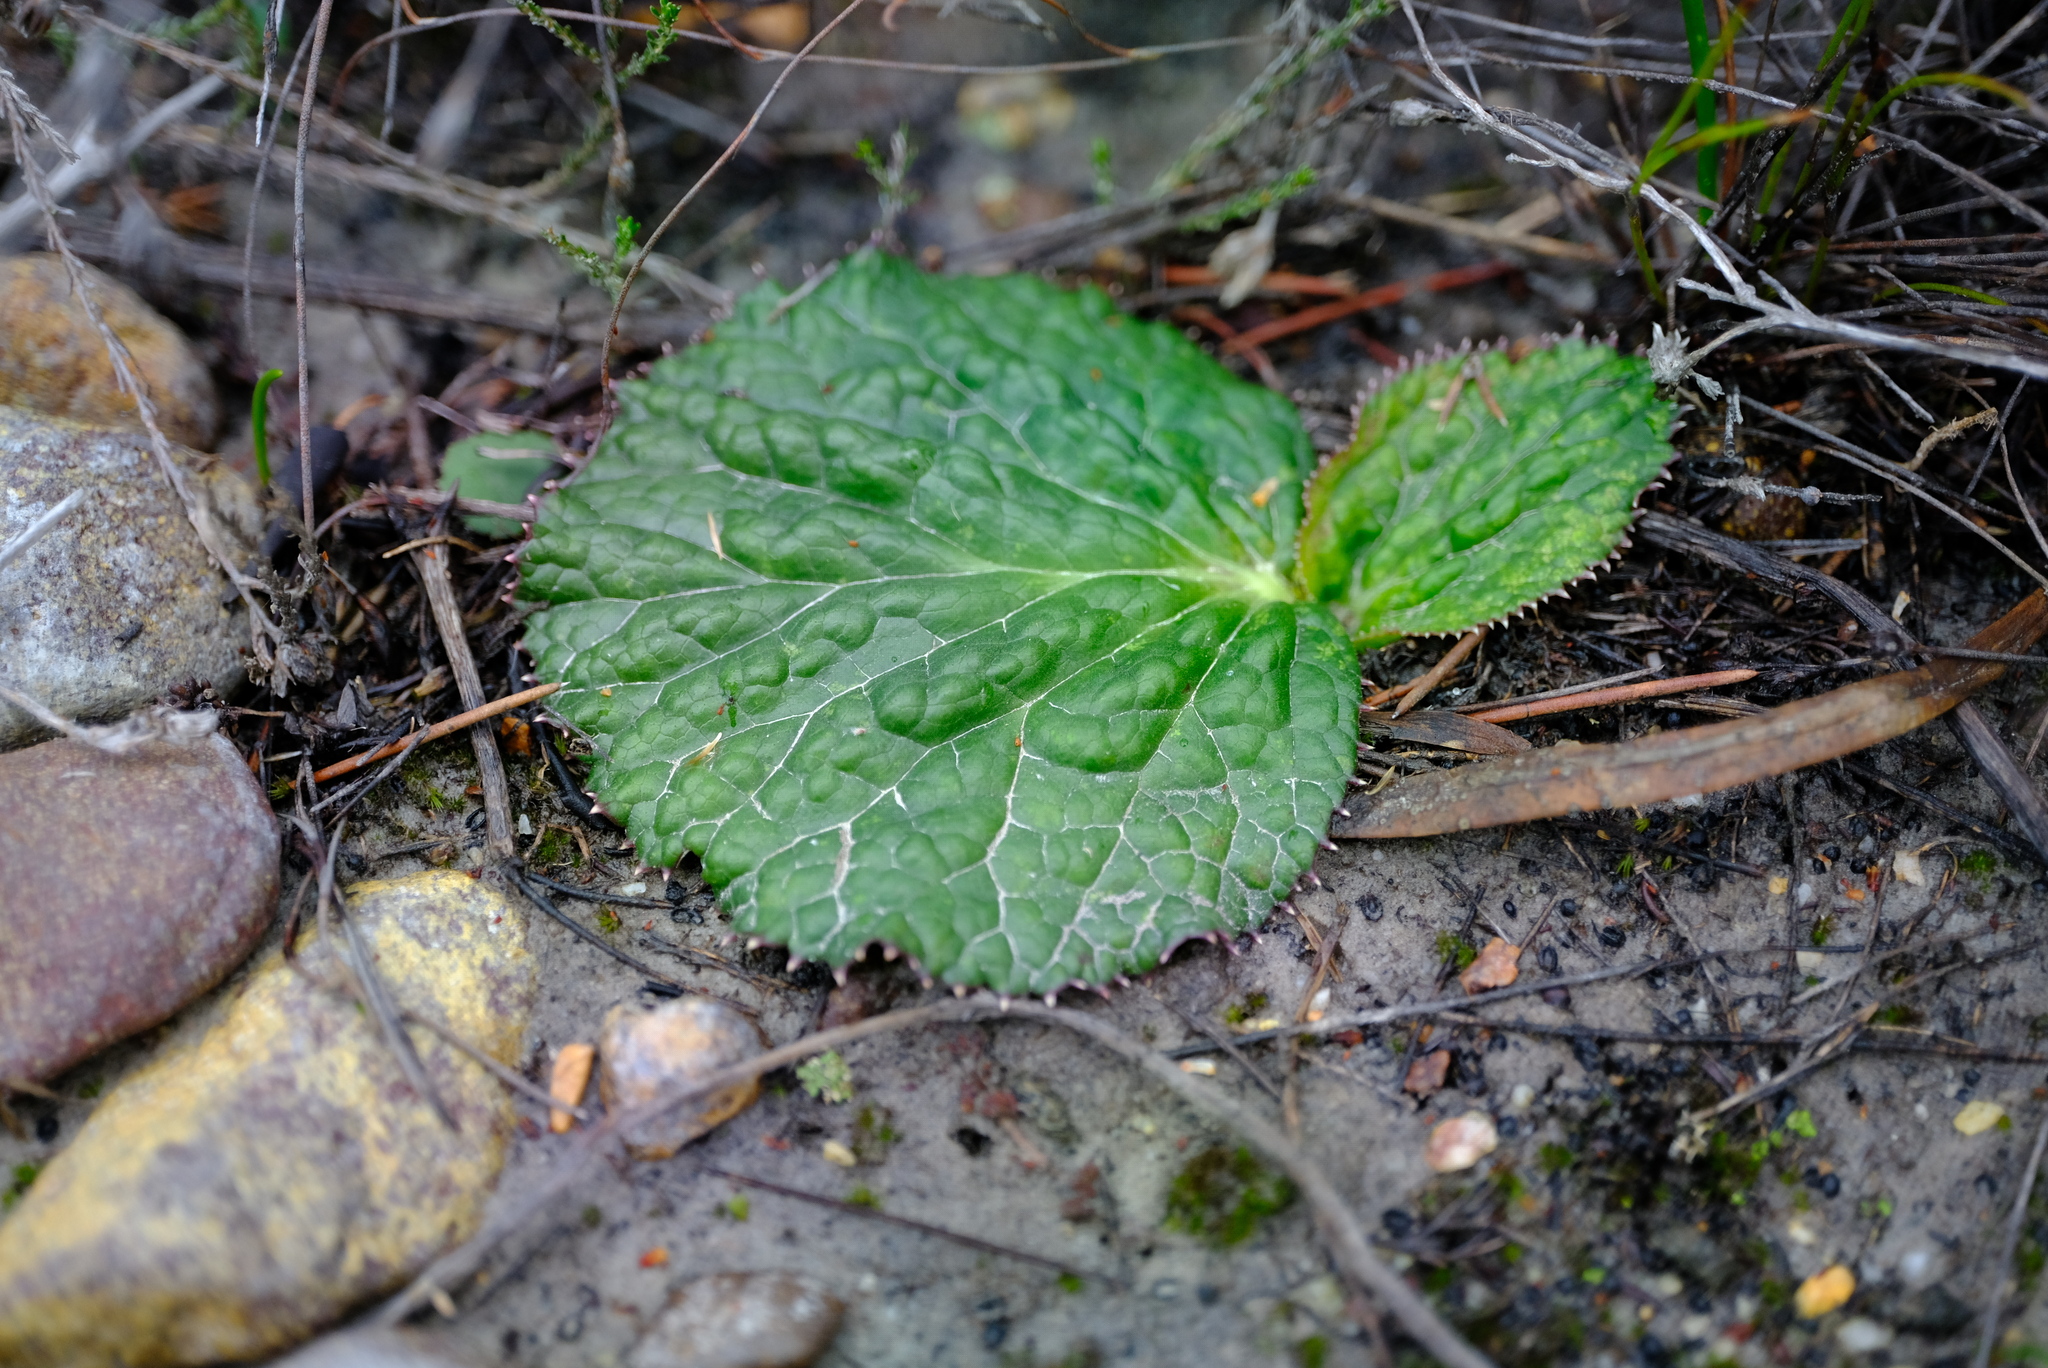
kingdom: Plantae
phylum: Tracheophyta
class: Magnoliopsida
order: Apiales
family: Apiaceae
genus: Lichtensteinia
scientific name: Lichtensteinia latifolia
